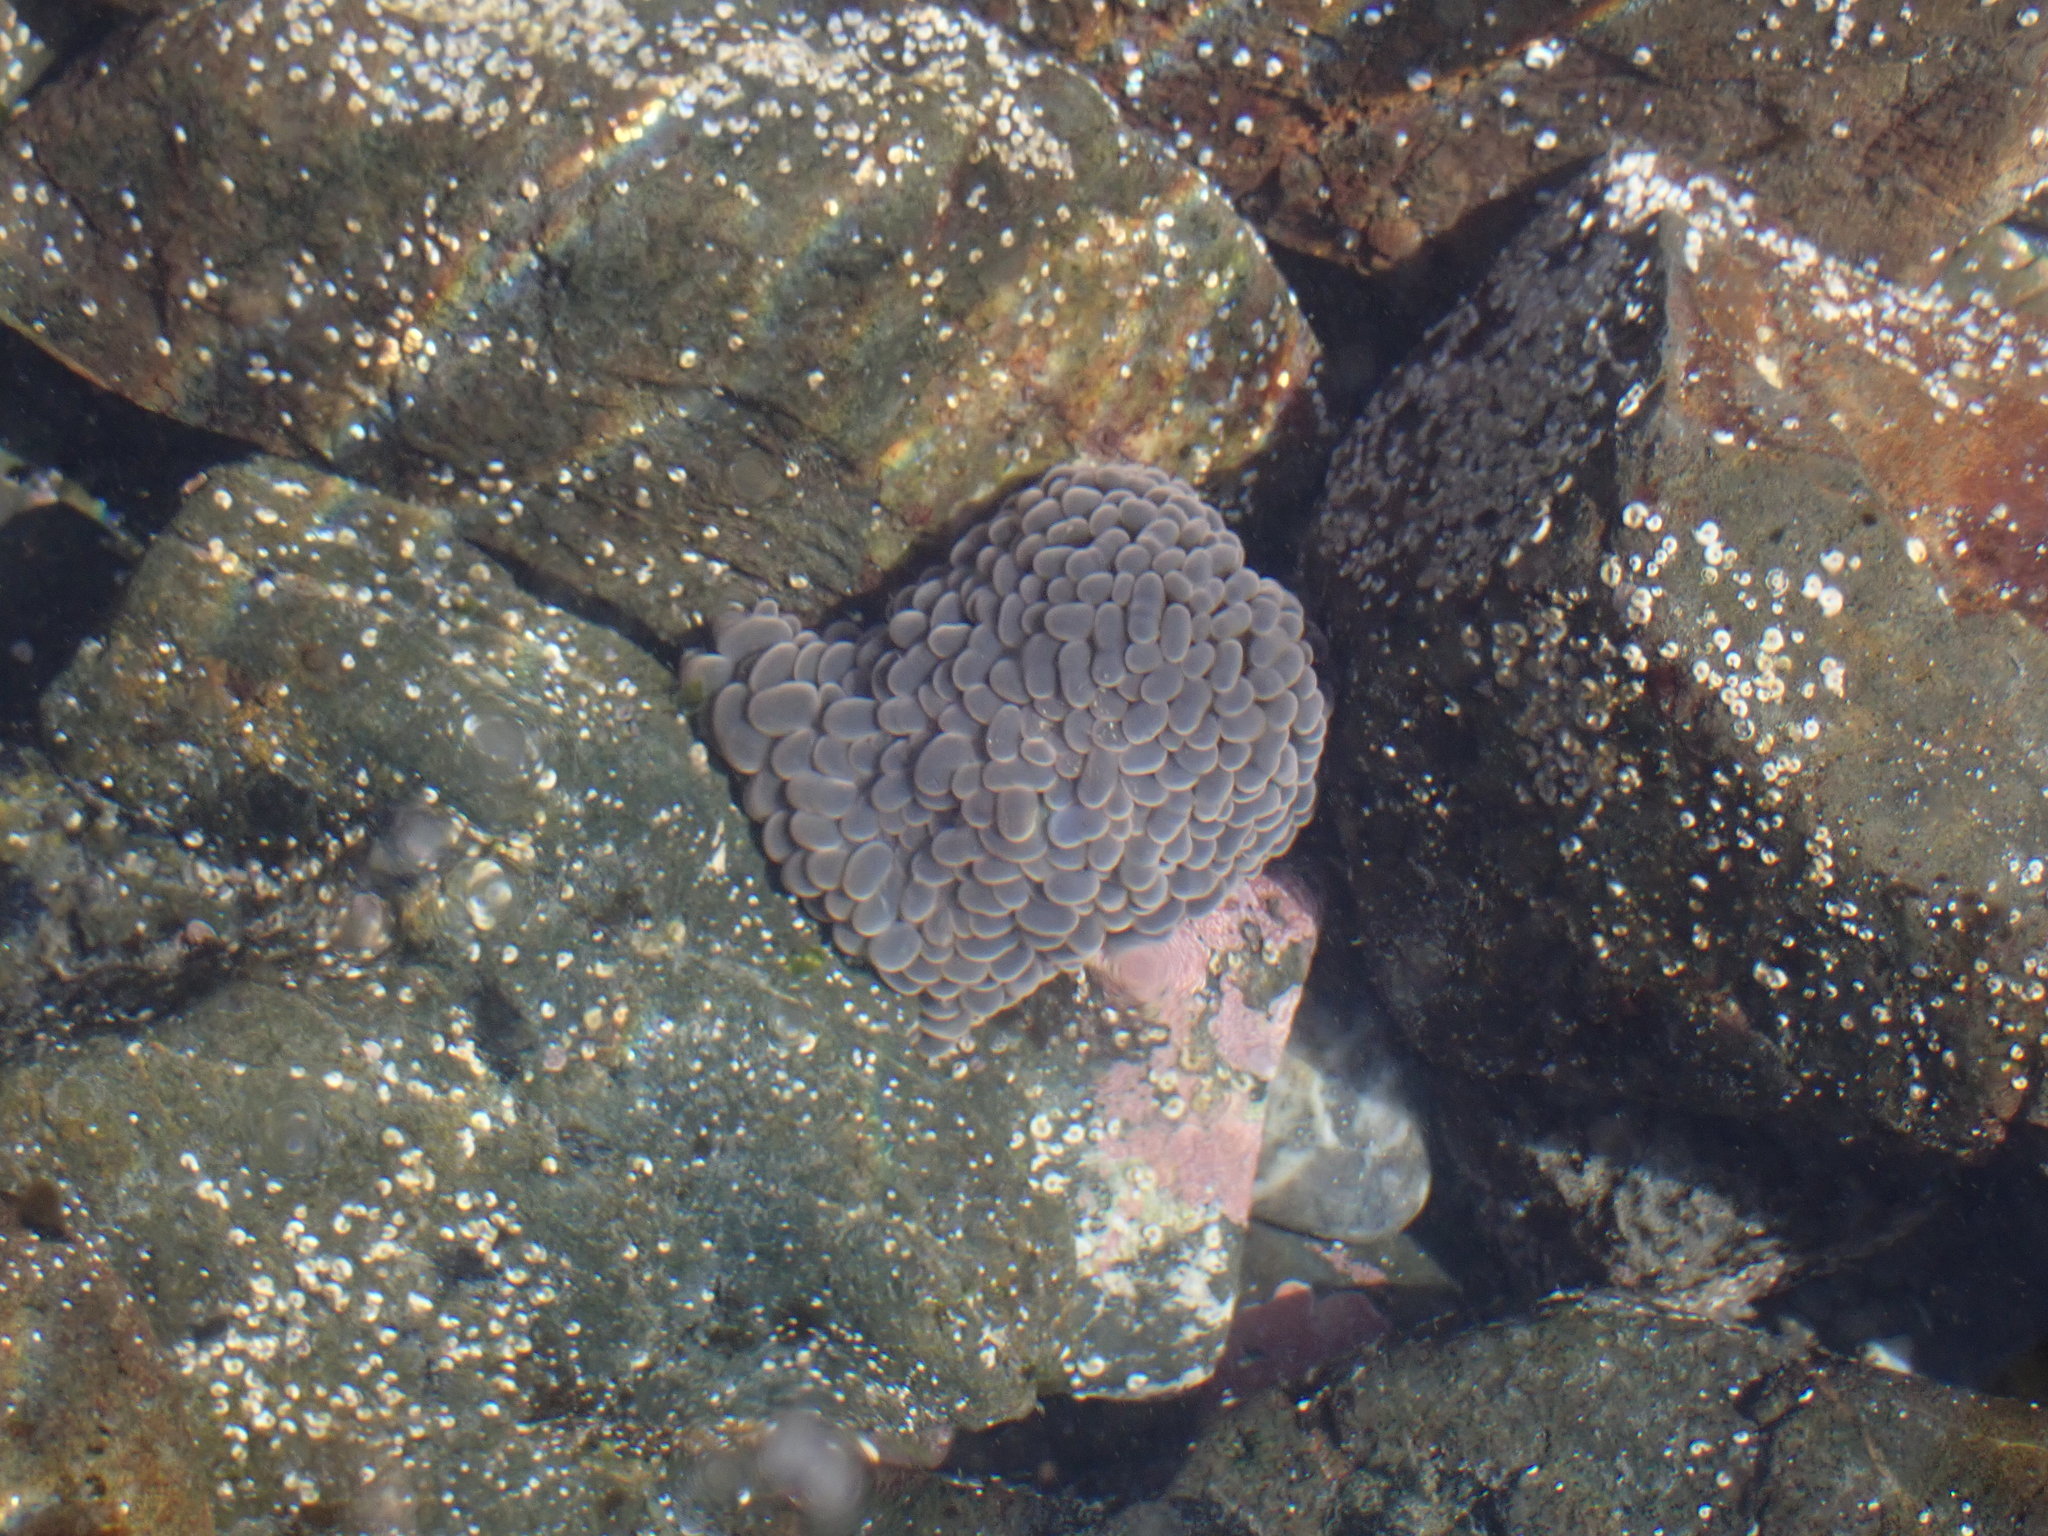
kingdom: Animalia
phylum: Cnidaria
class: Anthozoa
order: Actiniaria
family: Actiniidae
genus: Phlyctenactis
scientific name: Phlyctenactis tuberculosa
